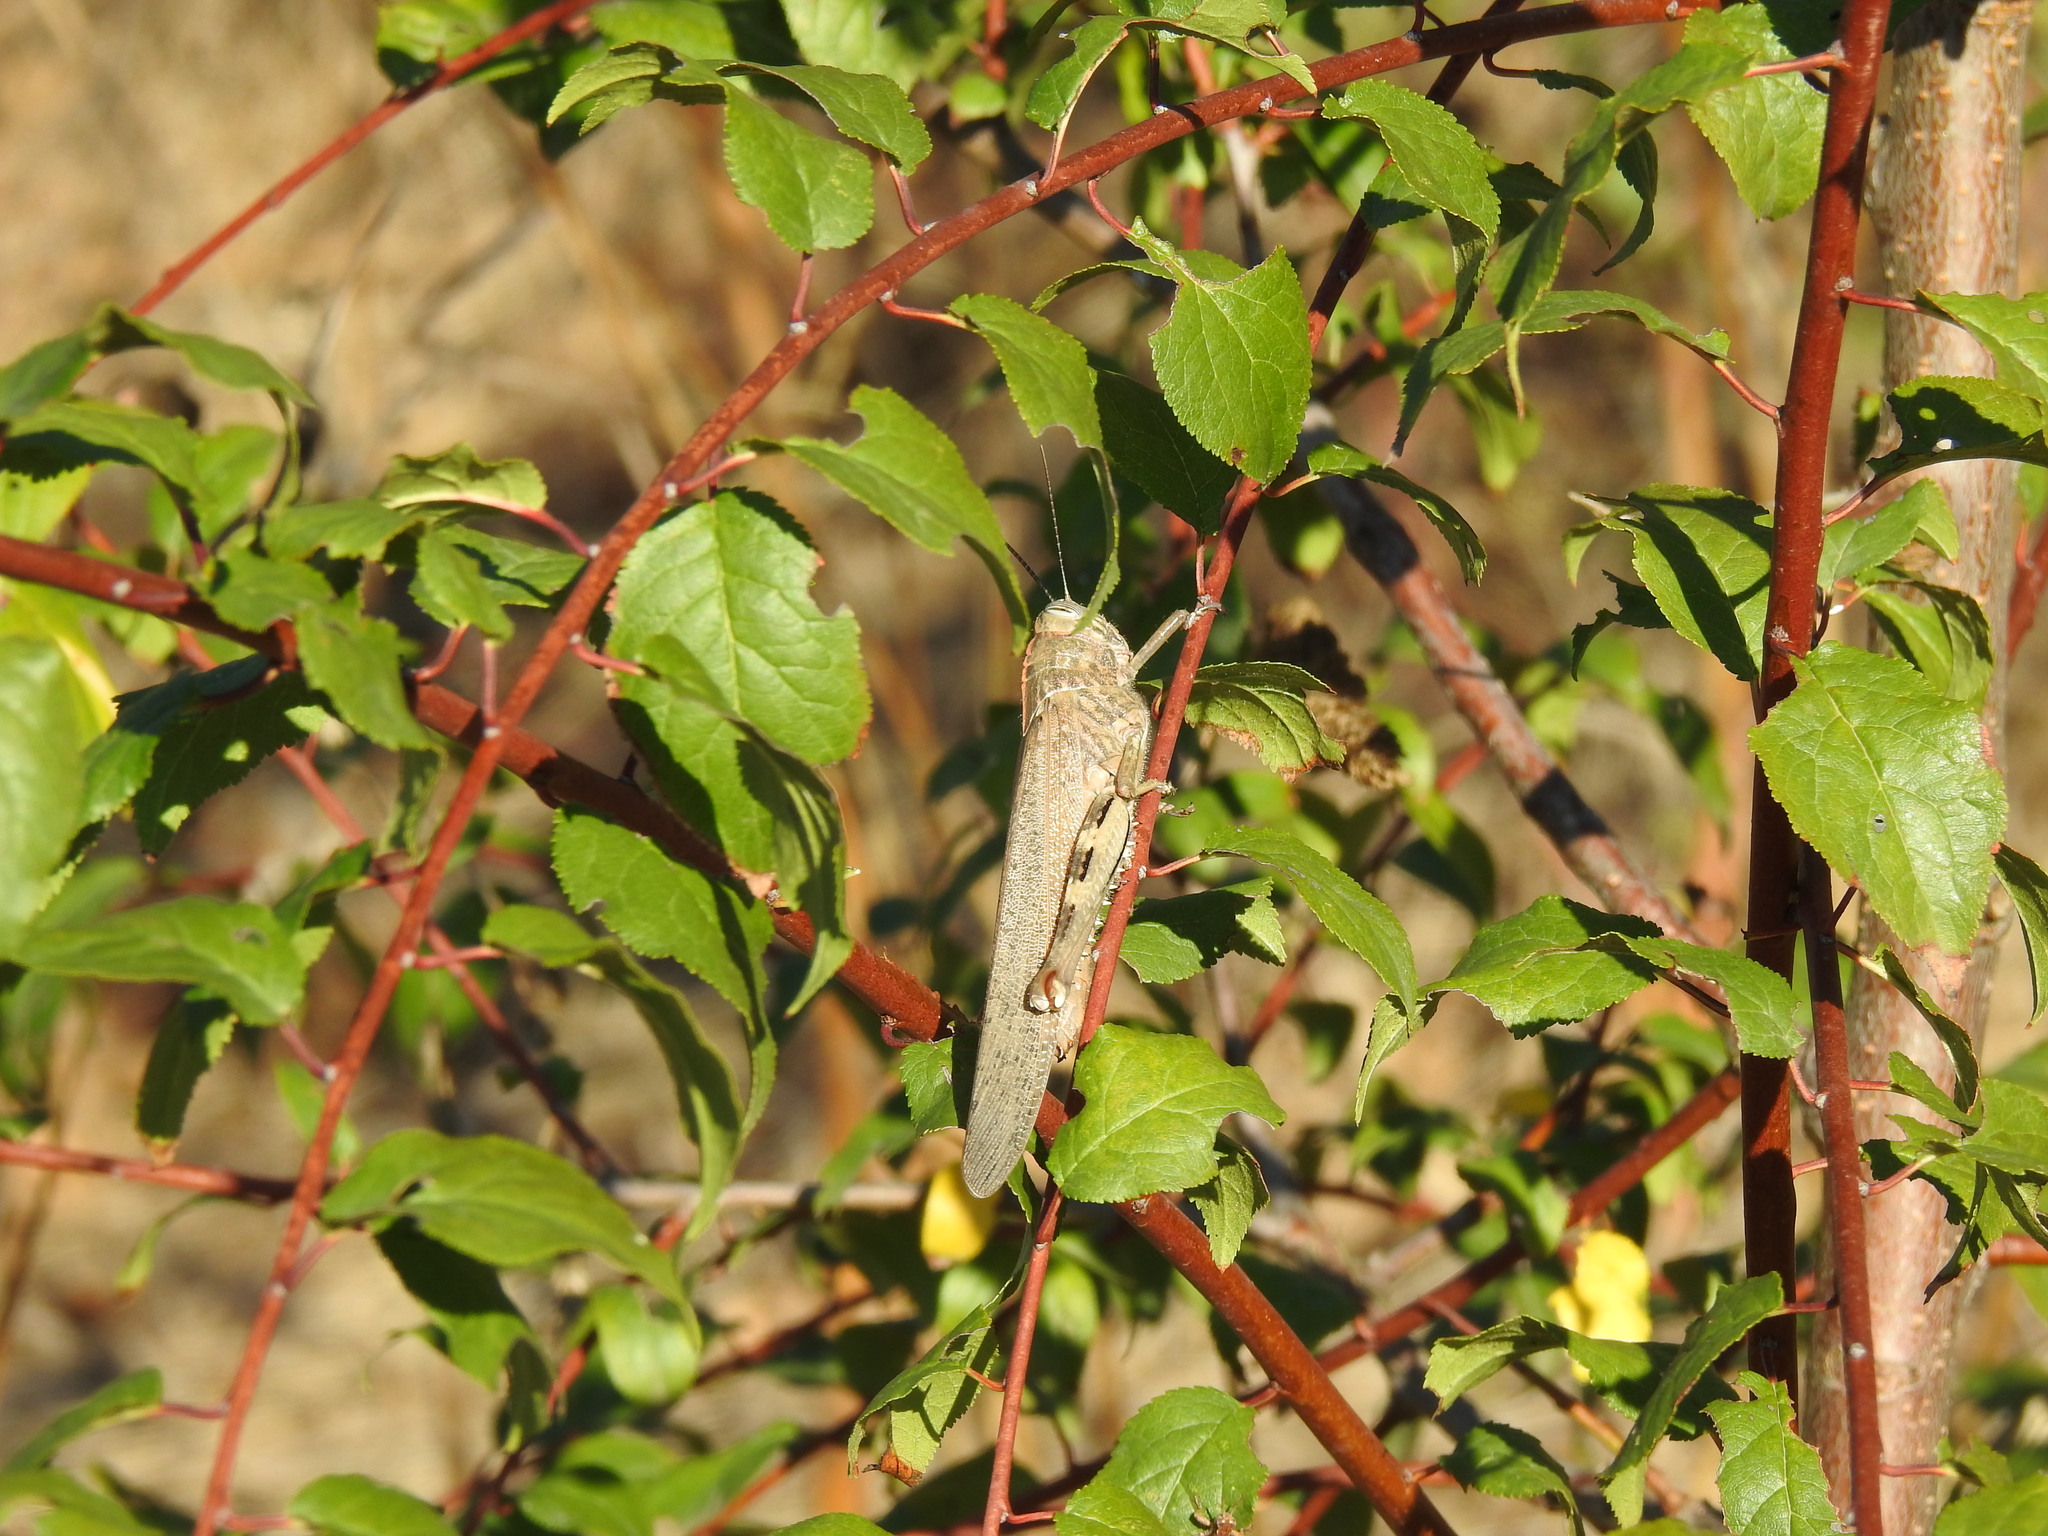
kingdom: Animalia
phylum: Arthropoda
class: Insecta
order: Orthoptera
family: Acrididae
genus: Anacridium
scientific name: Anacridium aegyptium
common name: Egyptian grasshopper
